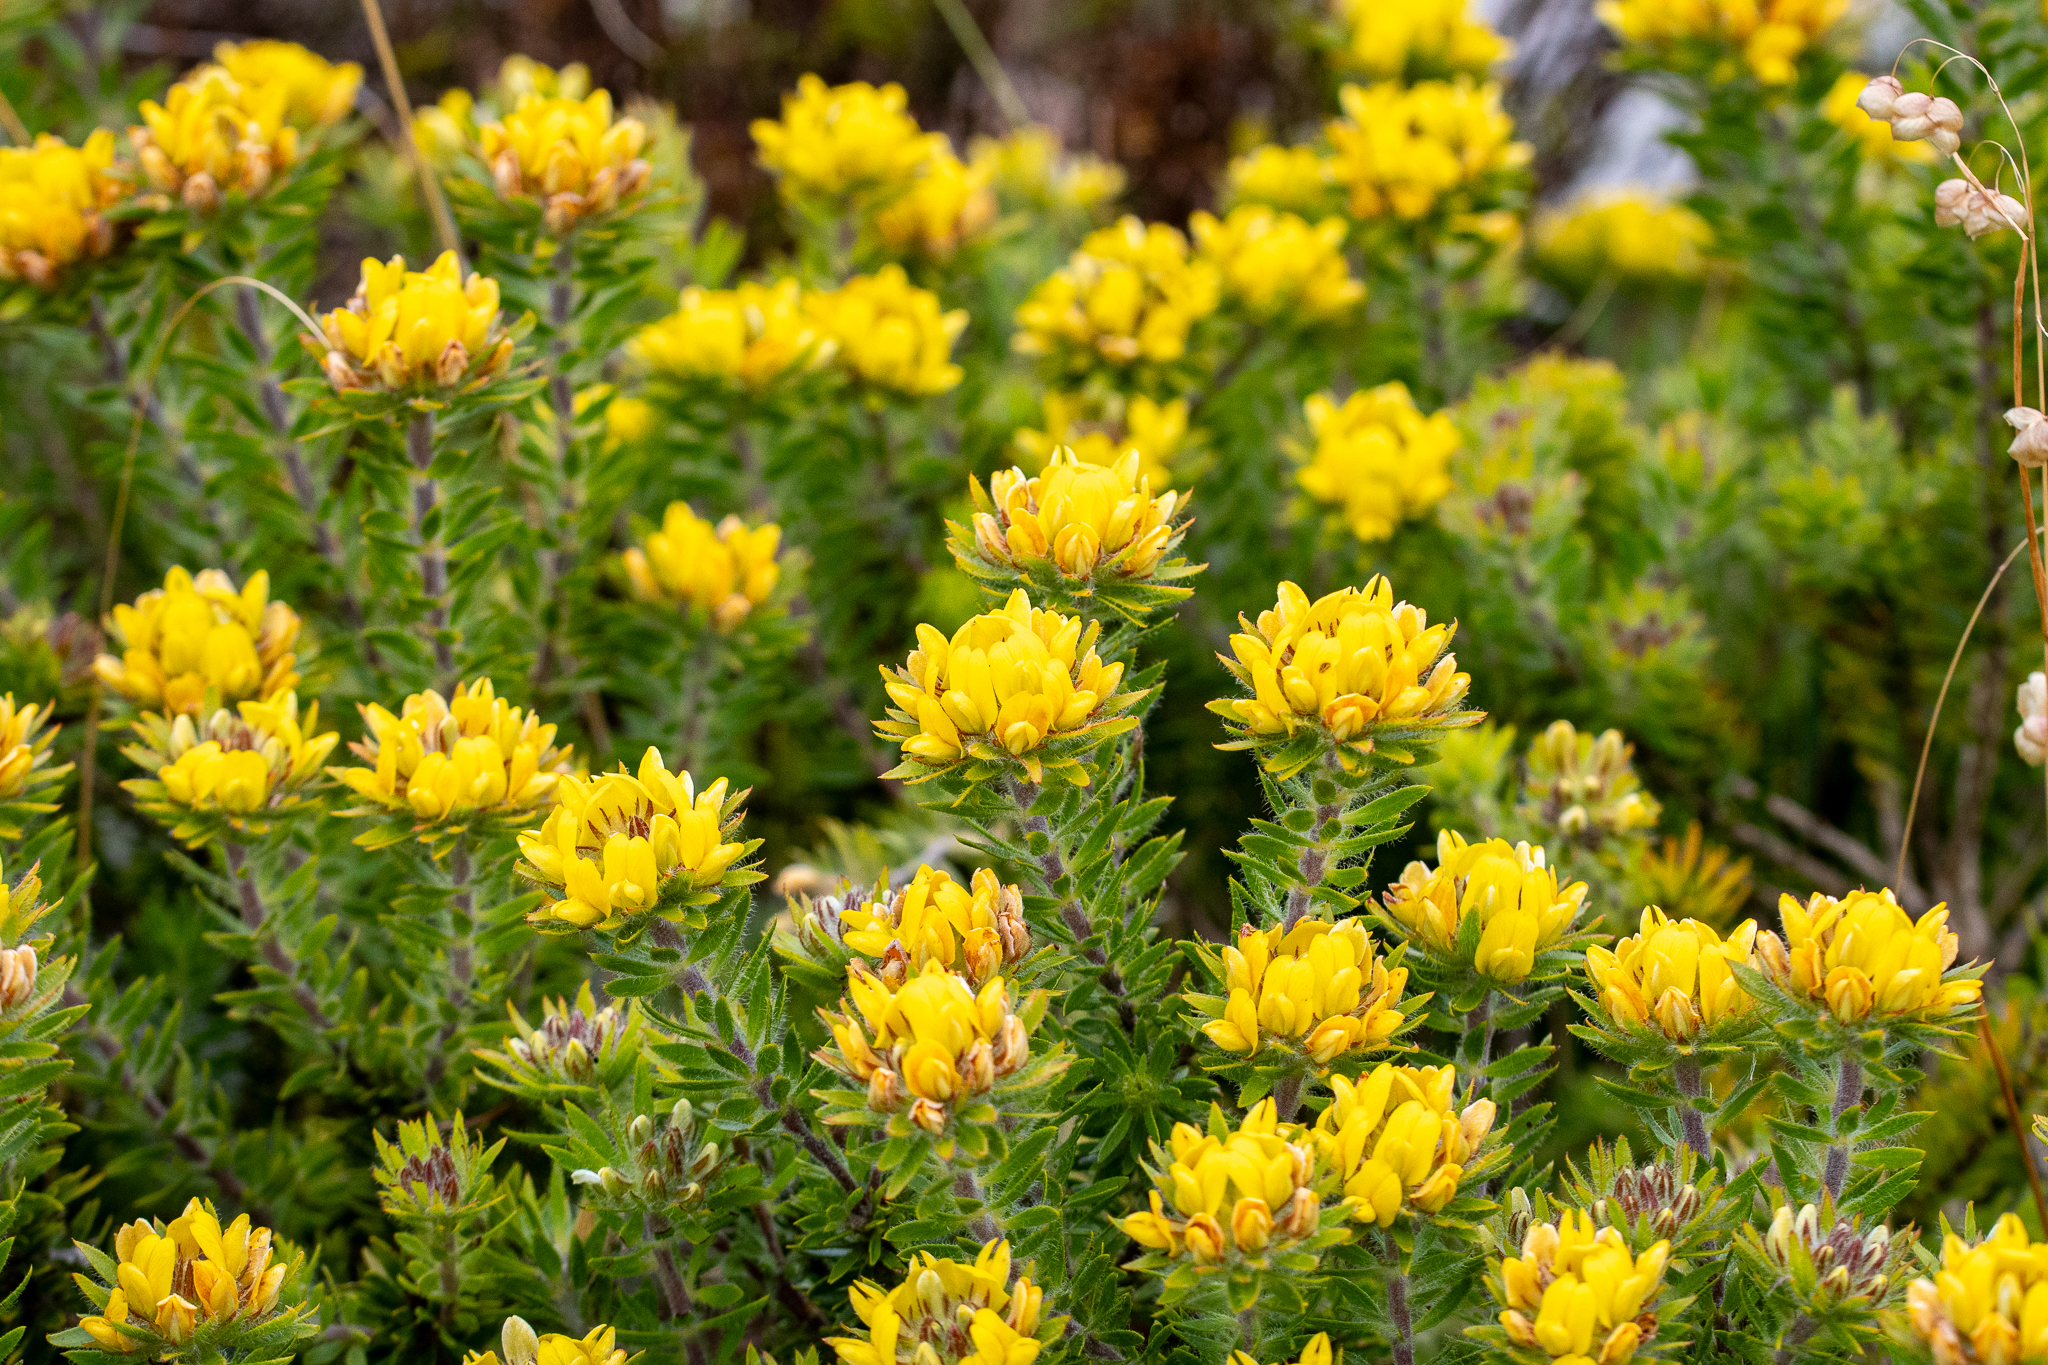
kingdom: Plantae
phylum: Tracheophyta
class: Magnoliopsida
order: Fabales
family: Fabaceae
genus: Aspalathus
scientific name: Aspalathus aspalathoides
